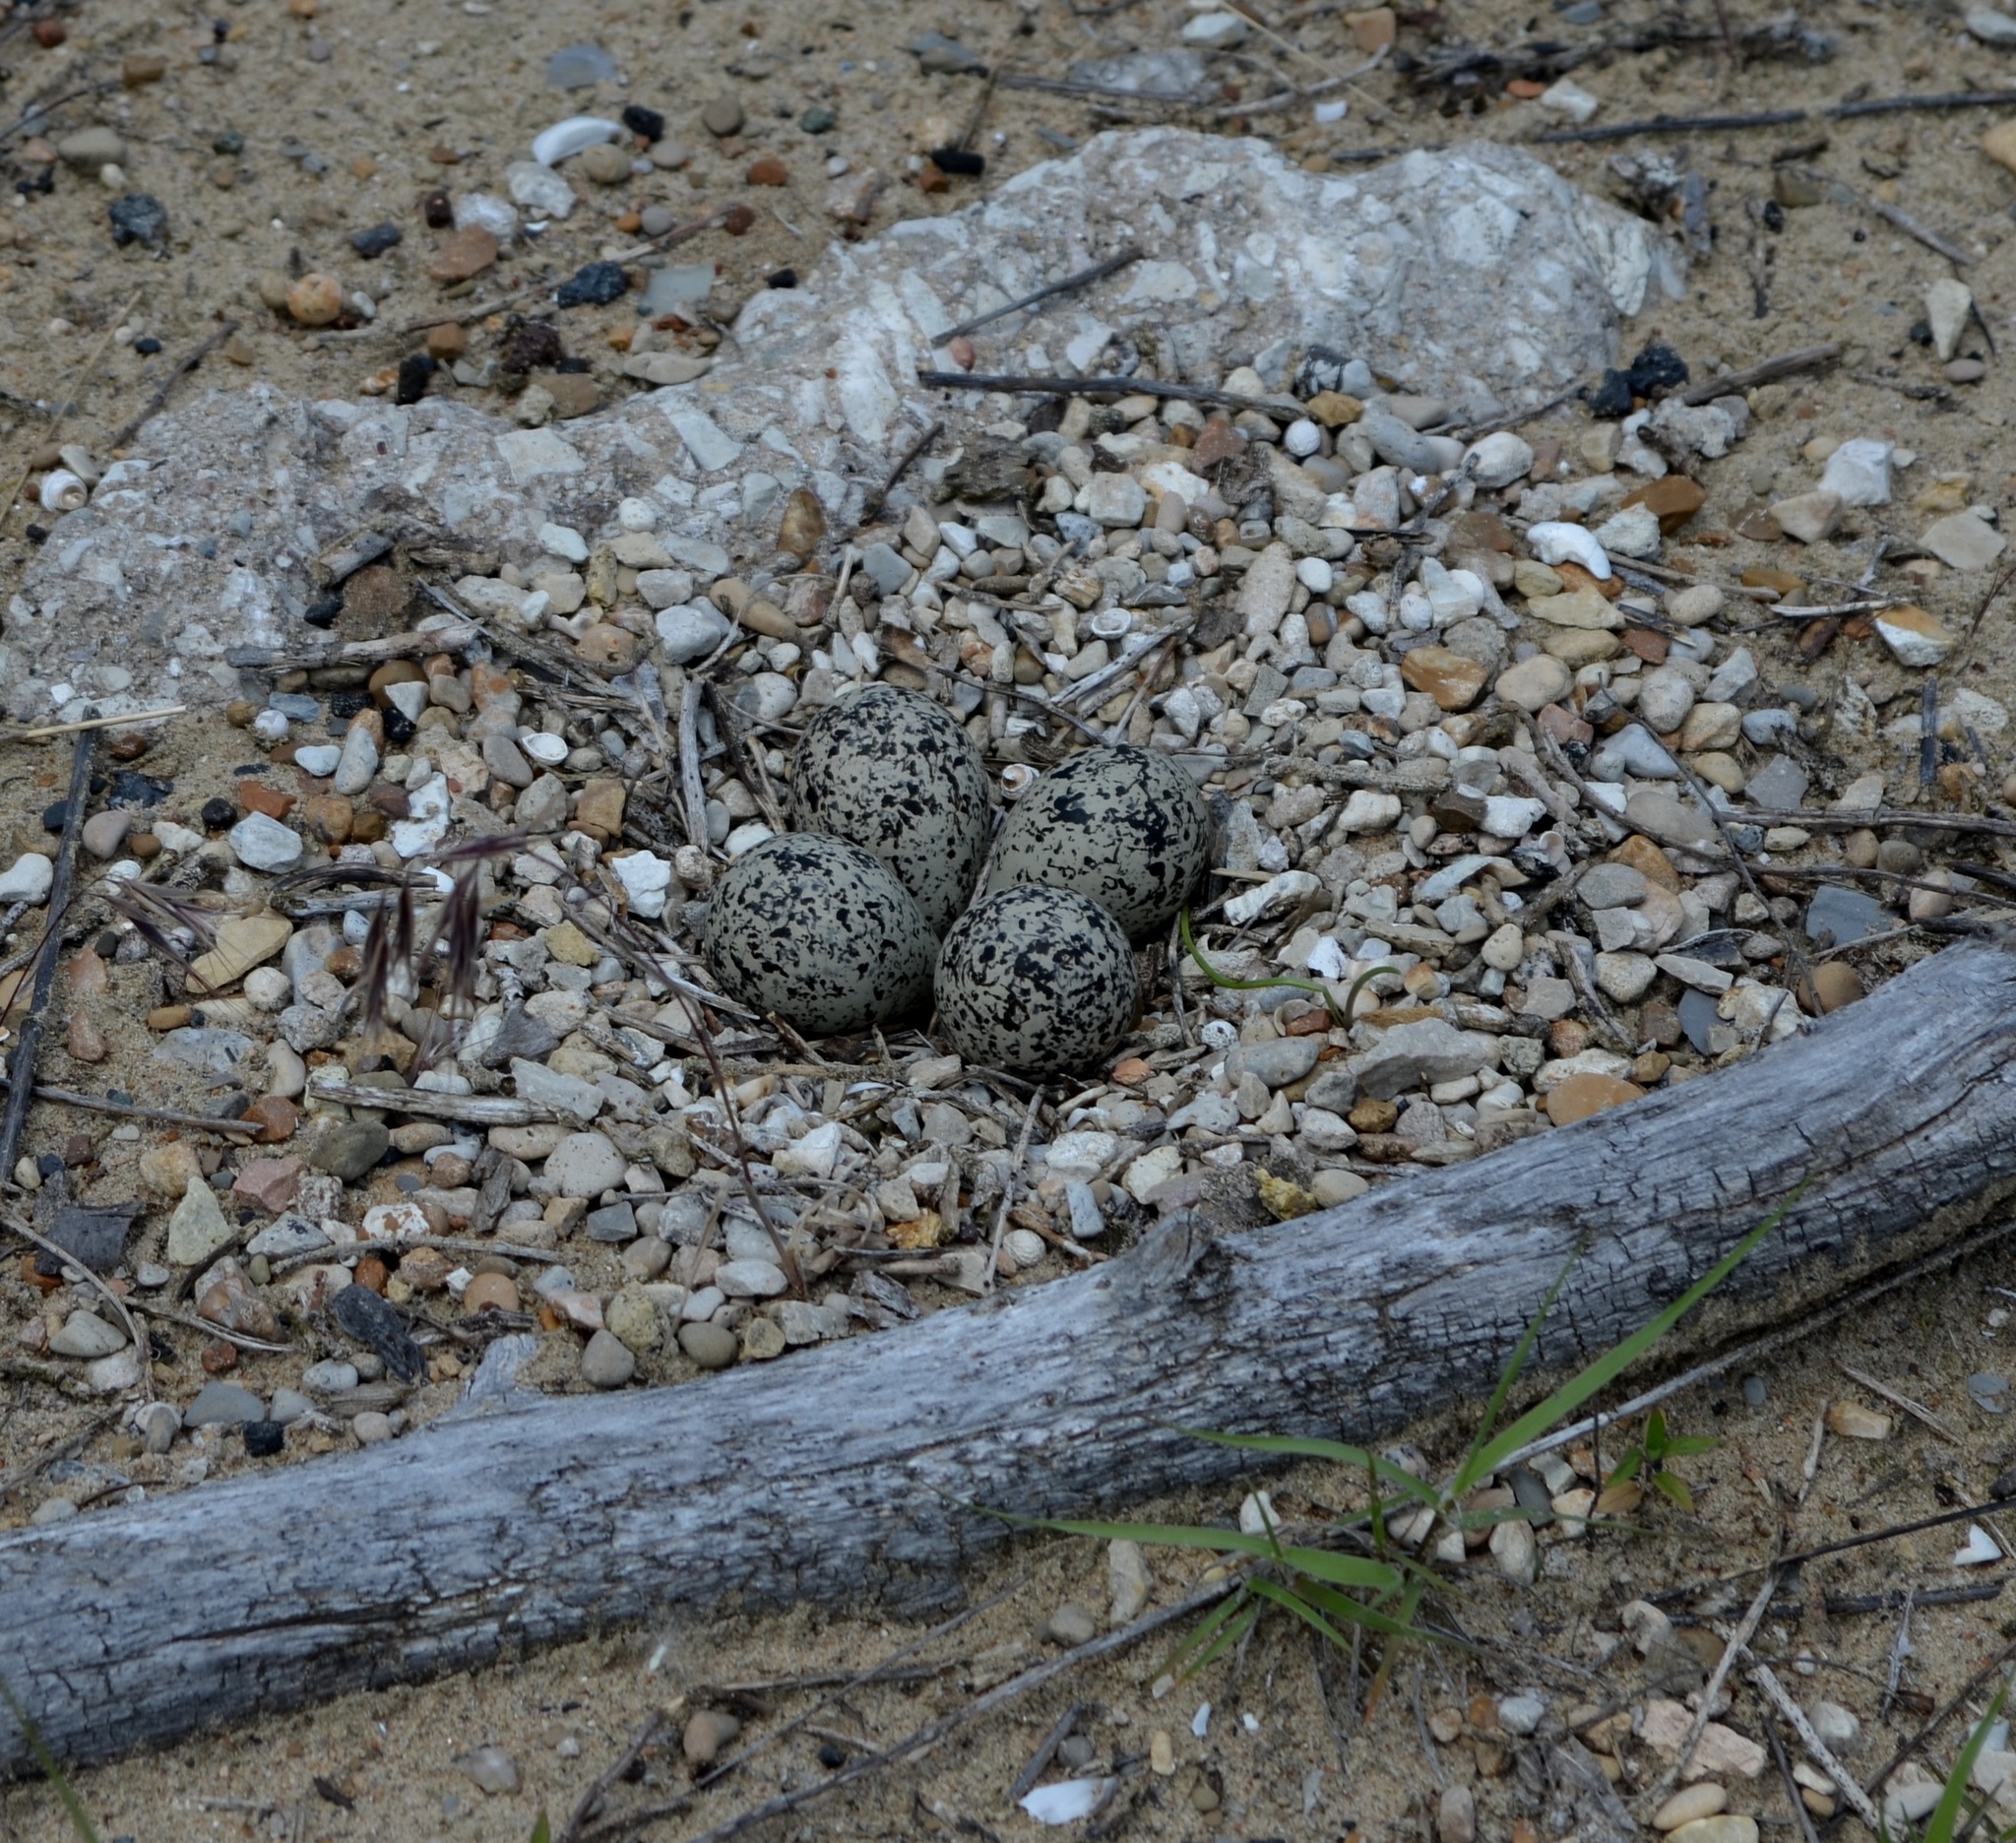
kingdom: Animalia
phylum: Chordata
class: Aves
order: Charadriiformes
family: Charadriidae
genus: Charadrius
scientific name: Charadrius vociferus
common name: Killdeer
